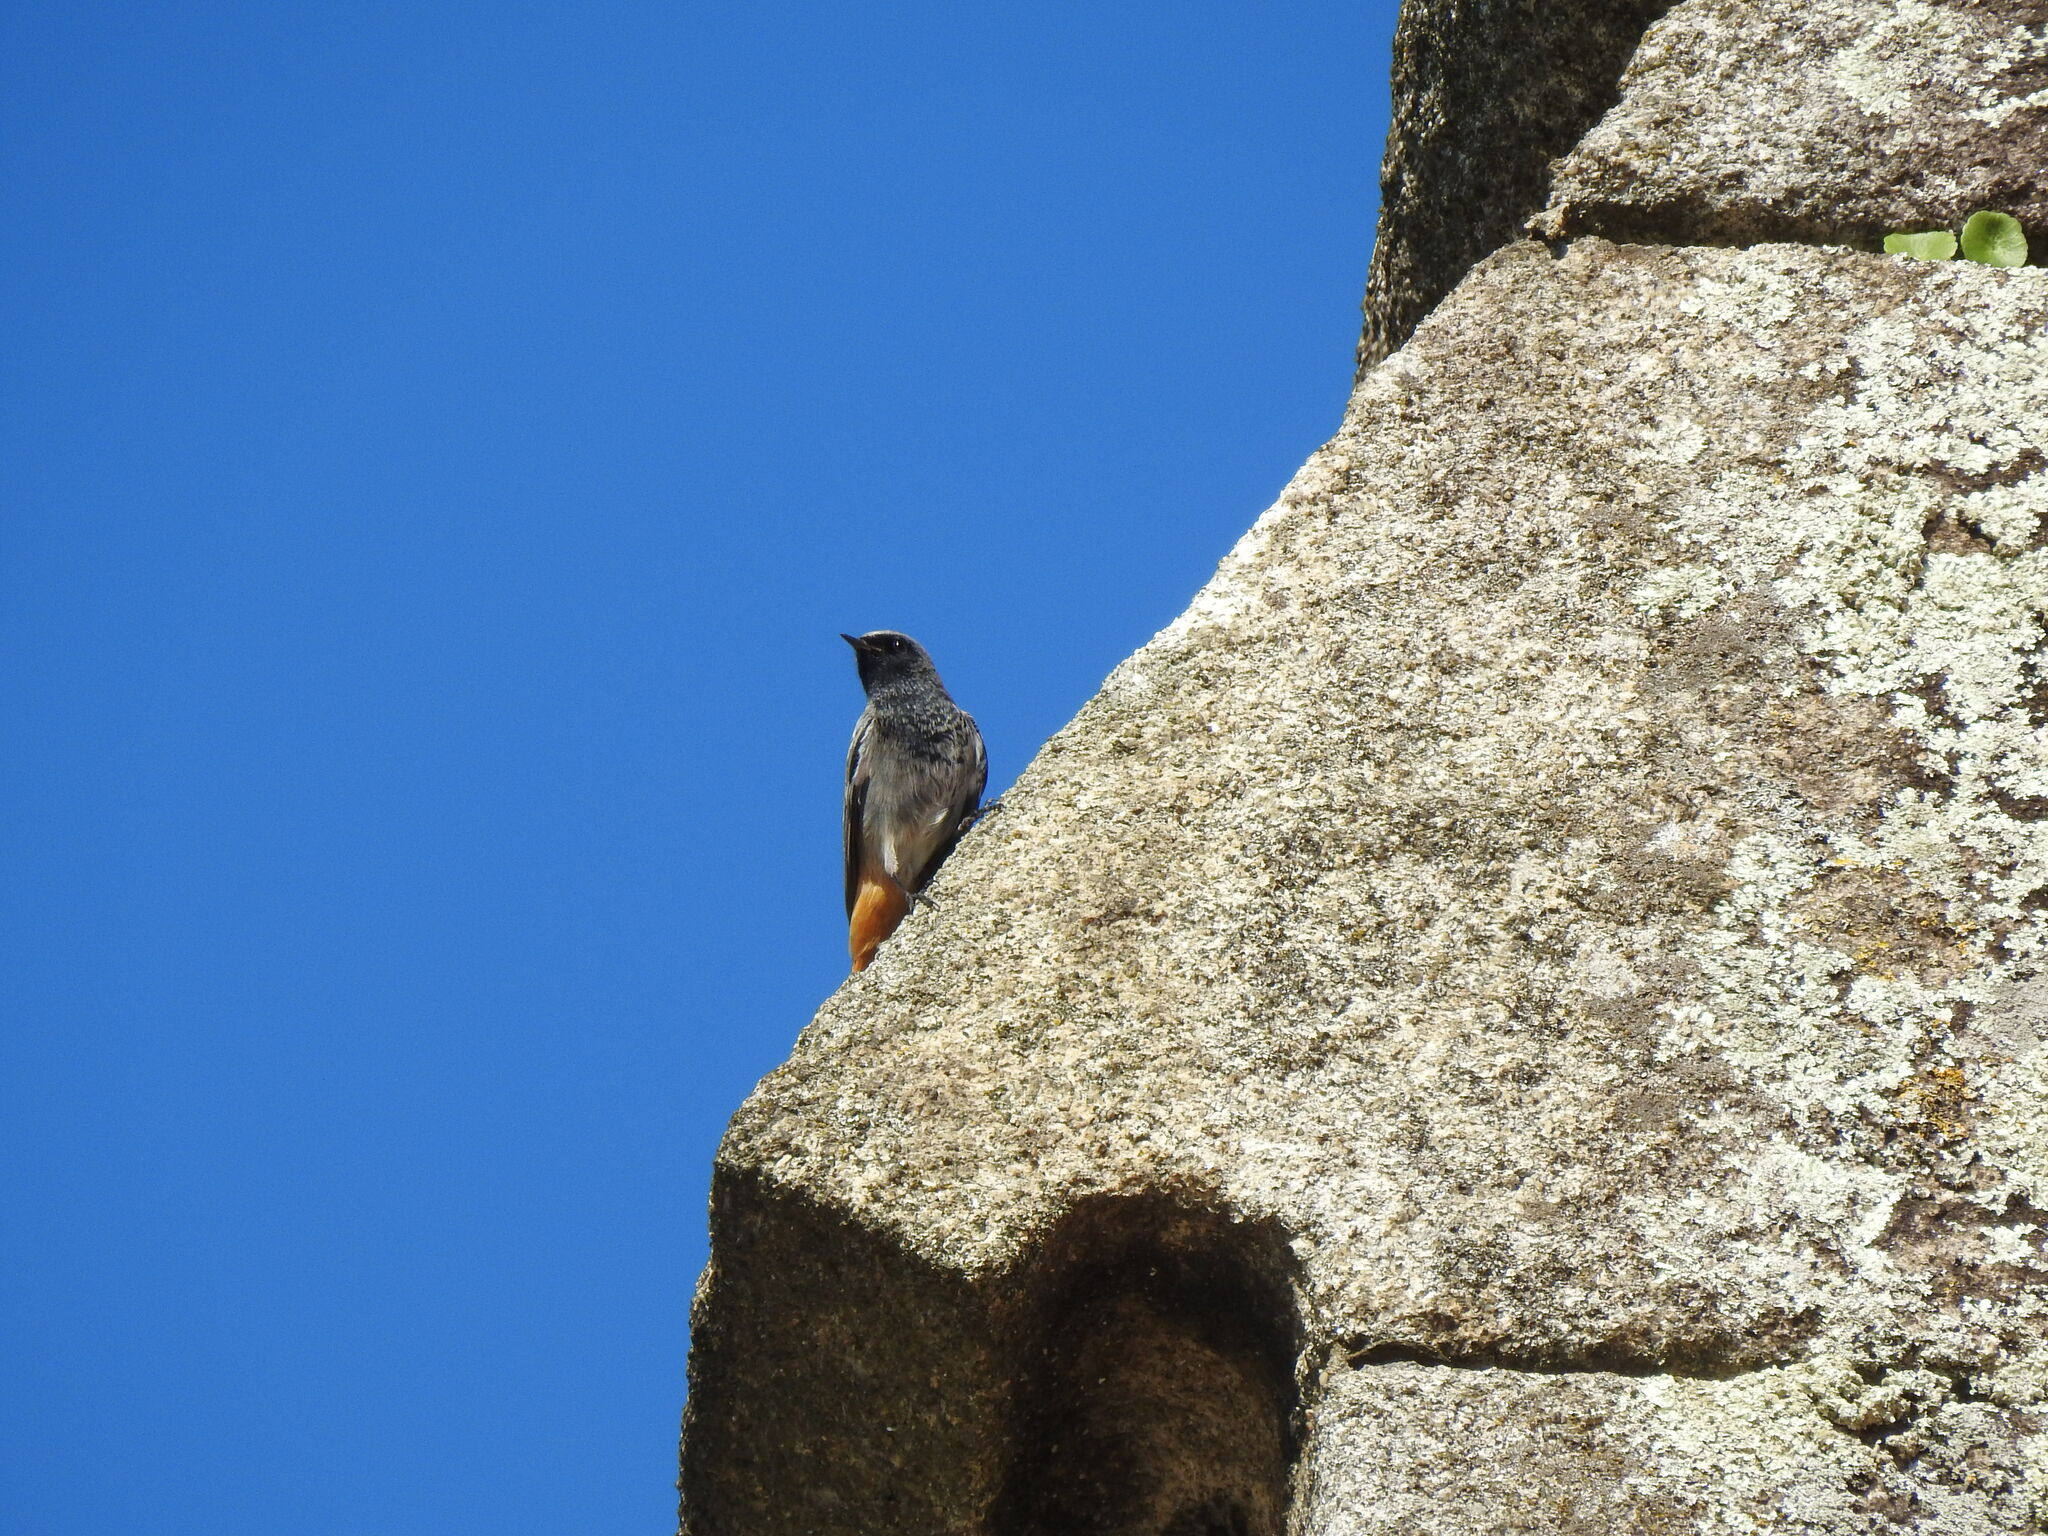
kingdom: Animalia
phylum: Chordata
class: Aves
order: Passeriformes
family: Muscicapidae
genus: Phoenicurus
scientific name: Phoenicurus ochruros
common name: Black redstart
